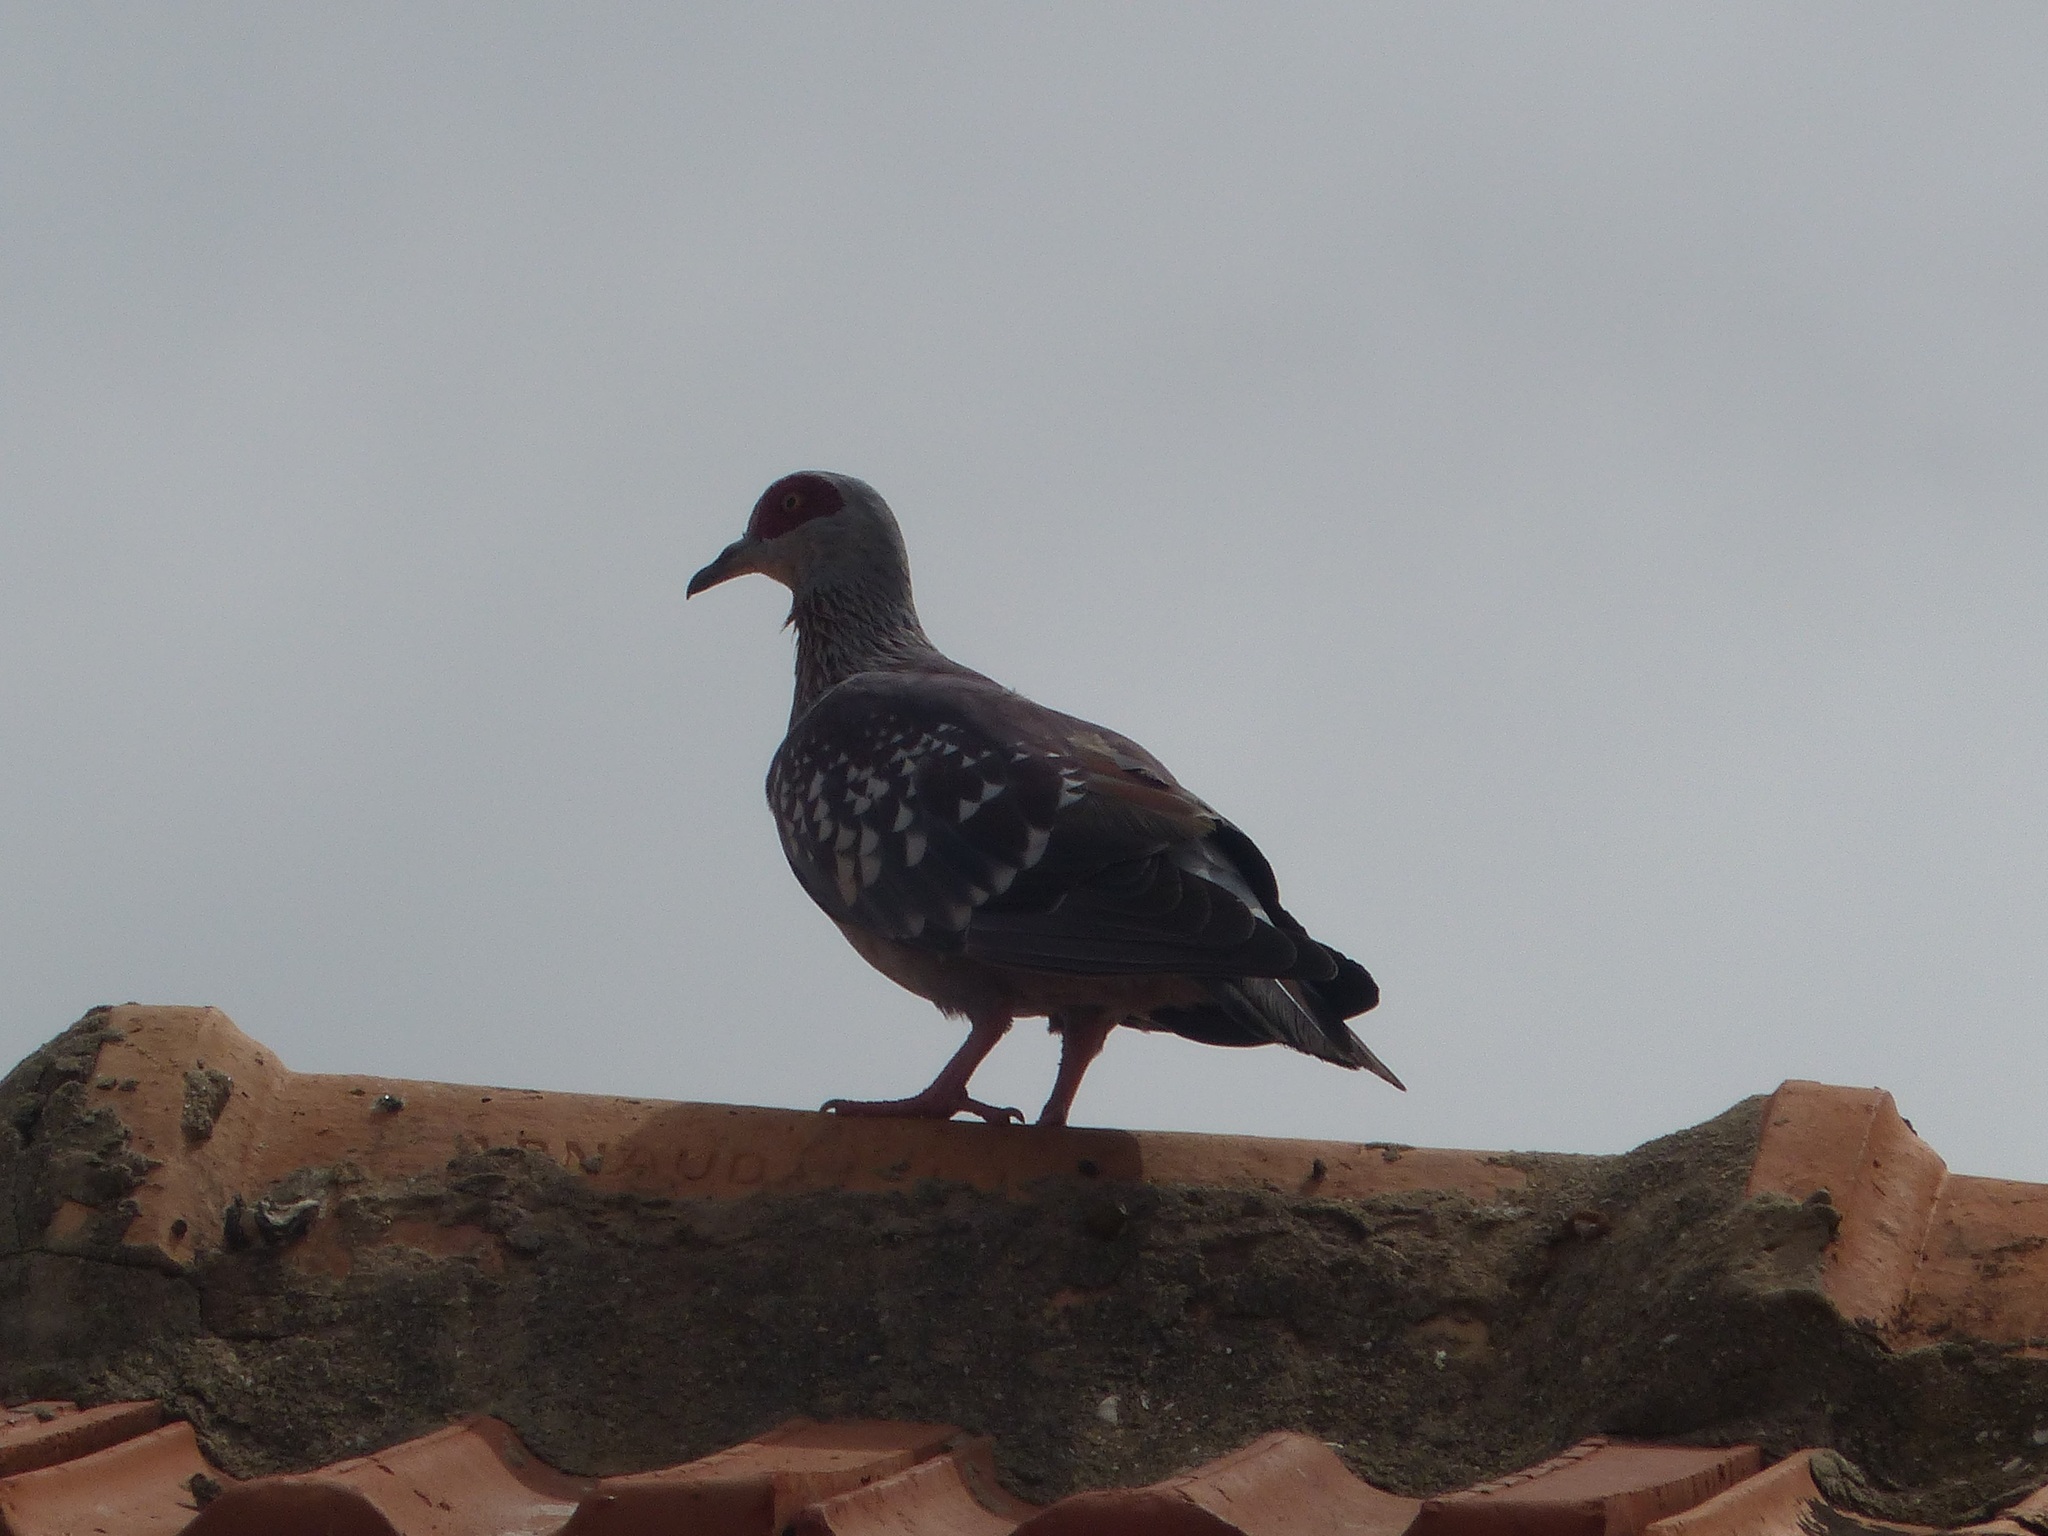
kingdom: Animalia
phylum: Chordata
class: Aves
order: Columbiformes
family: Columbidae
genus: Columba
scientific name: Columba guinea
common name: Speckled pigeon
